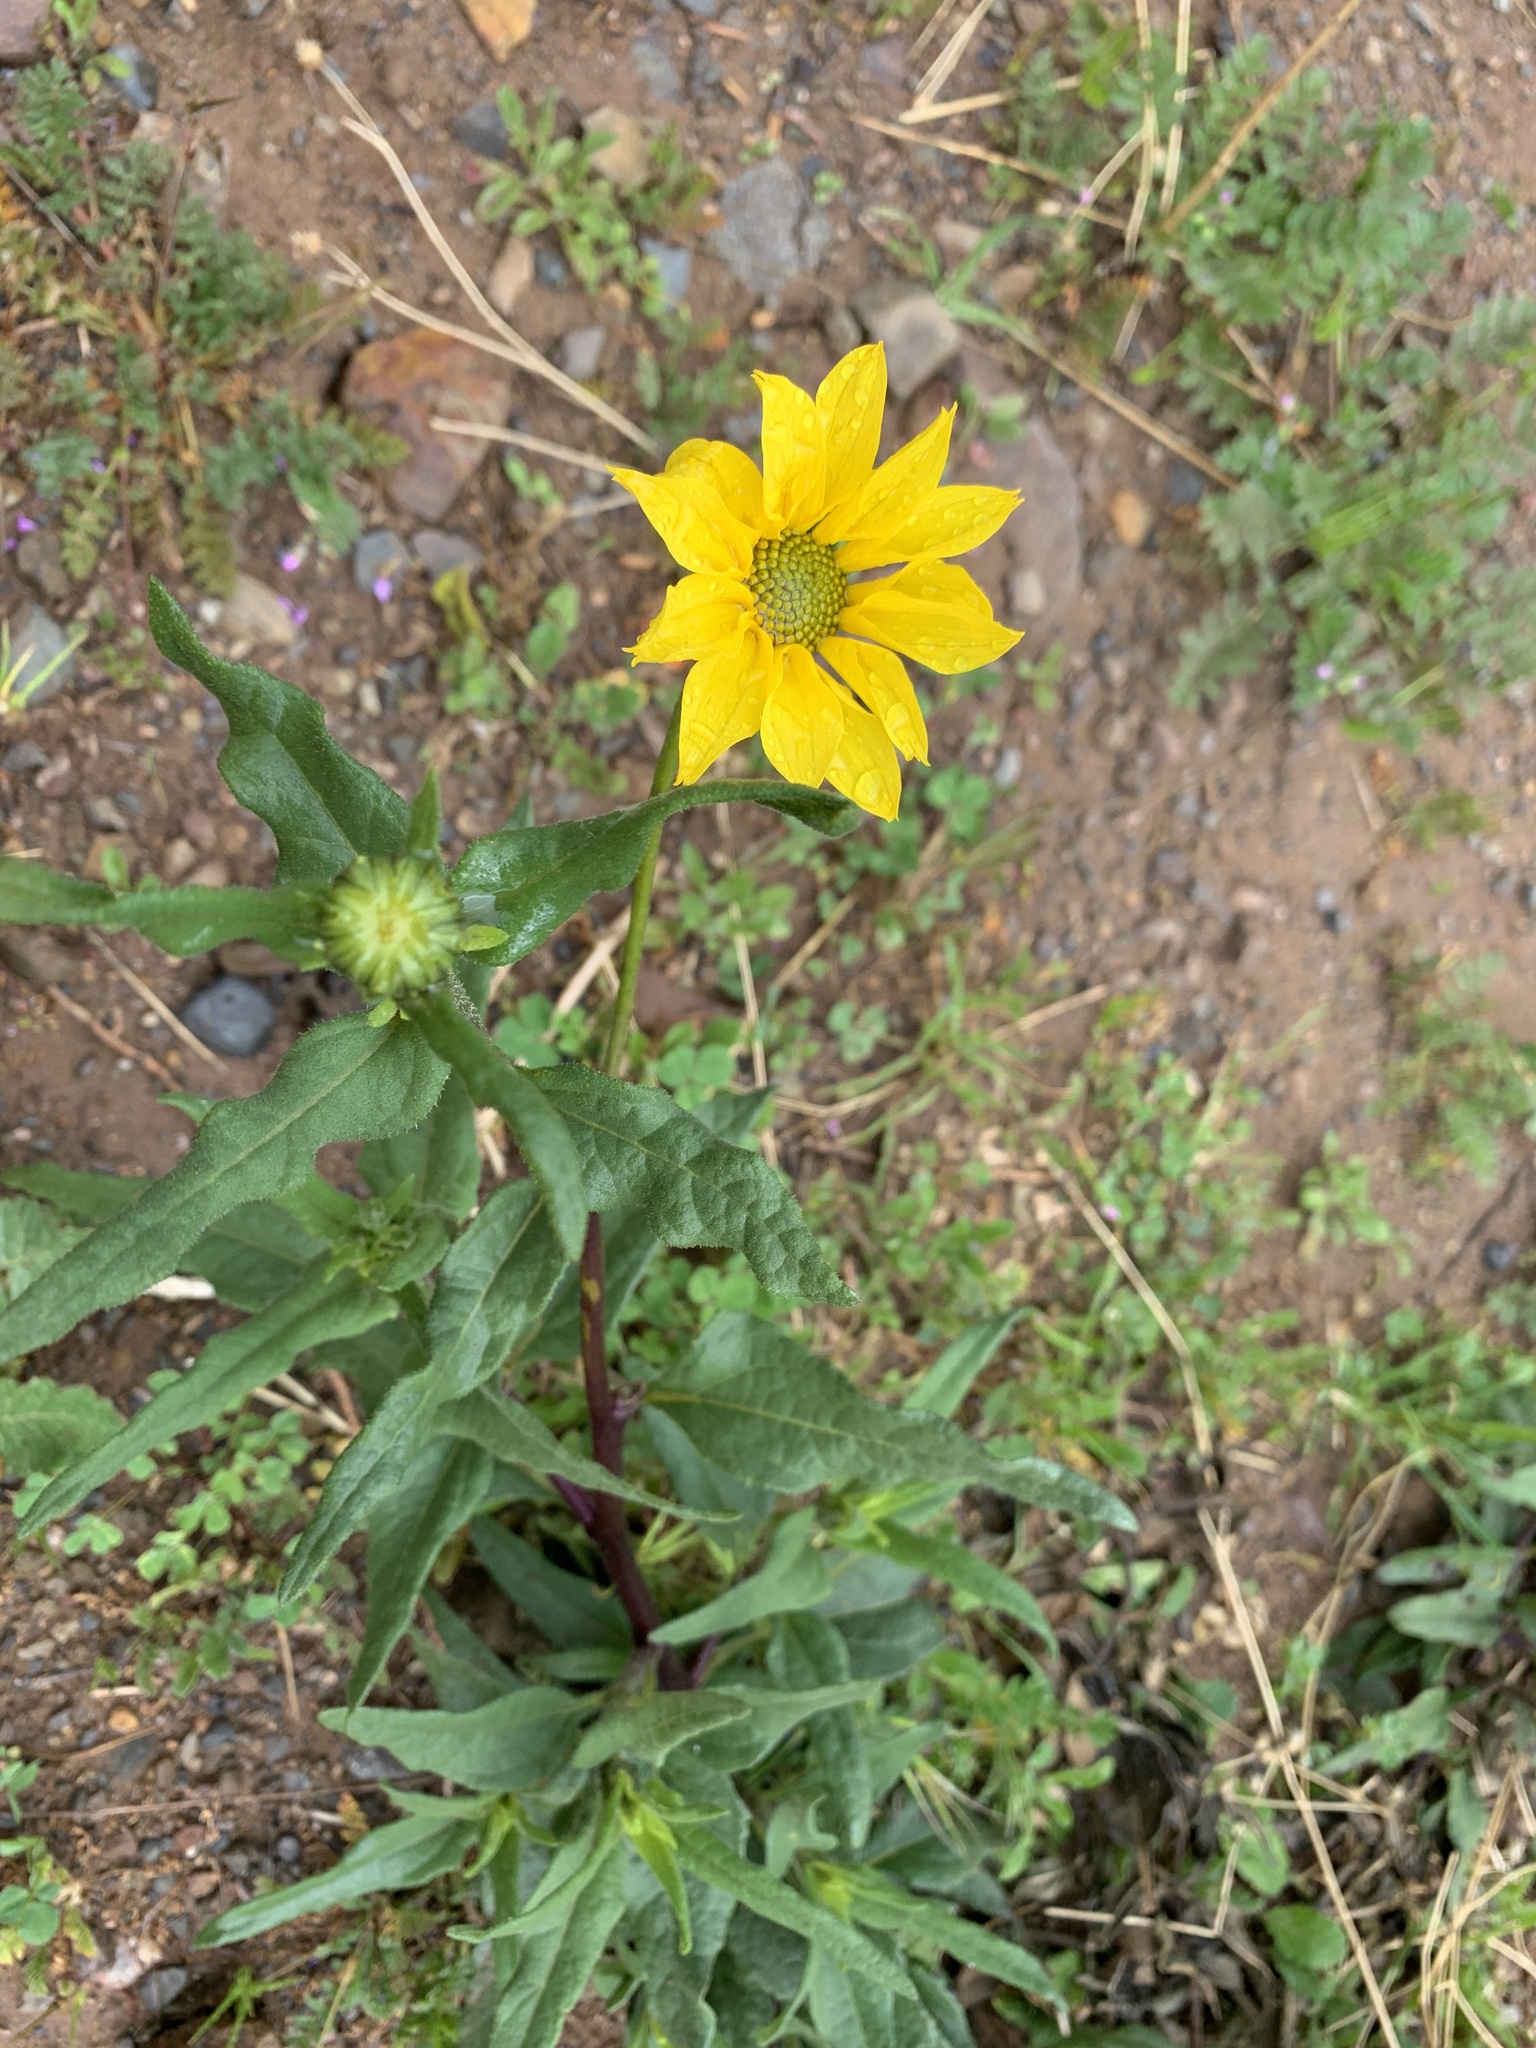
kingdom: Plantae
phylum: Tracheophyta
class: Magnoliopsida
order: Asterales
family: Asteraceae
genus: Helianthus
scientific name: Helianthus gracilentus
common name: Slender sunflower
